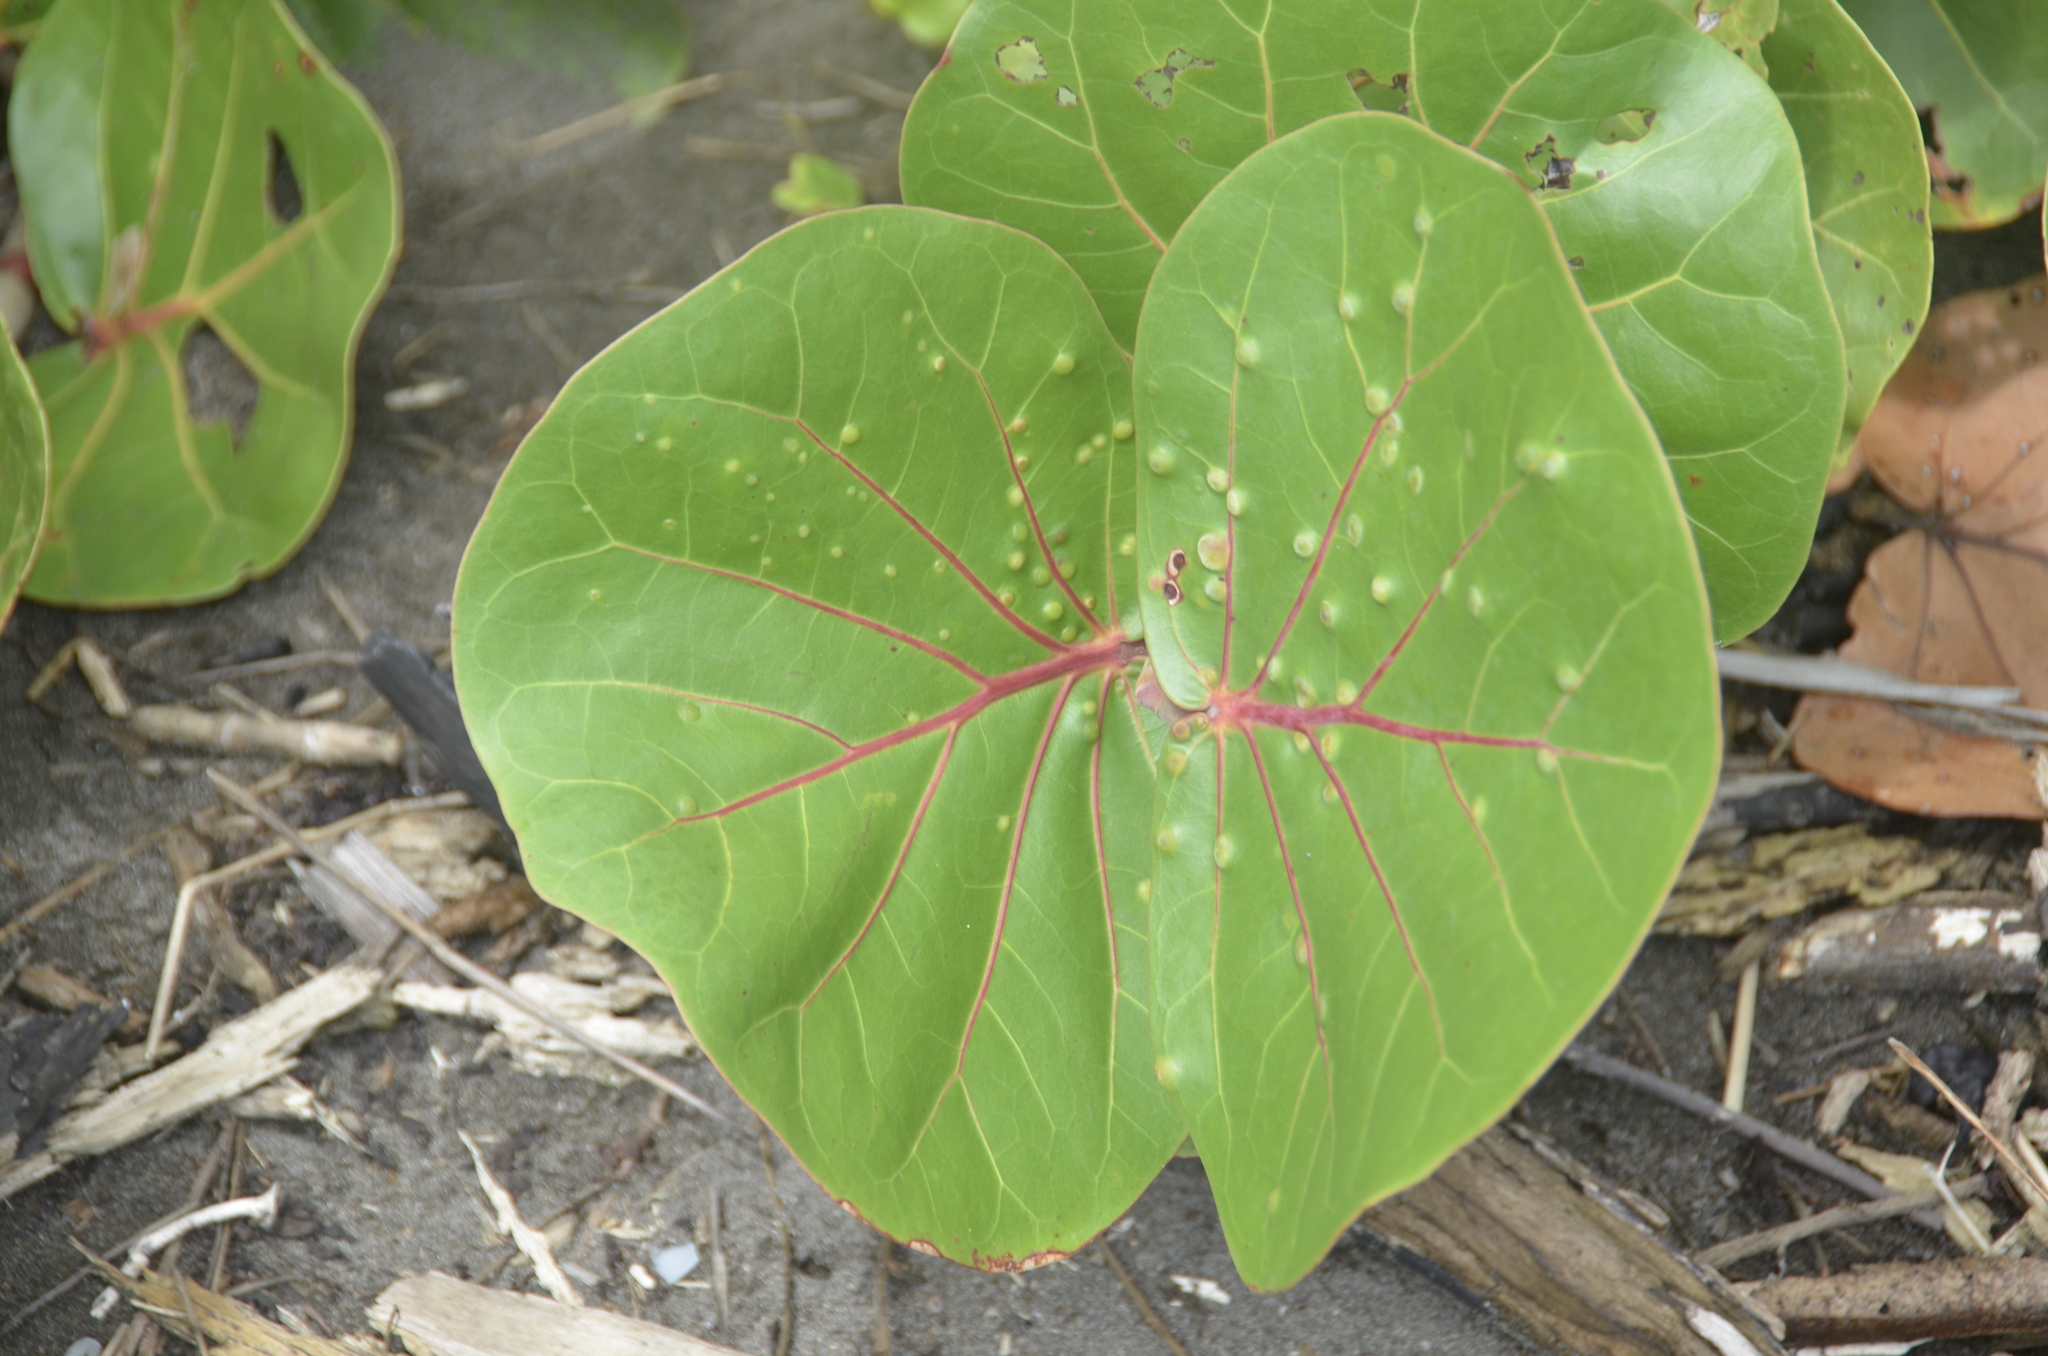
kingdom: Plantae
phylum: Tracheophyta
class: Magnoliopsida
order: Caryophyllales
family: Polygonaceae
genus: Coccoloba
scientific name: Coccoloba uvifera
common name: Seagrape
